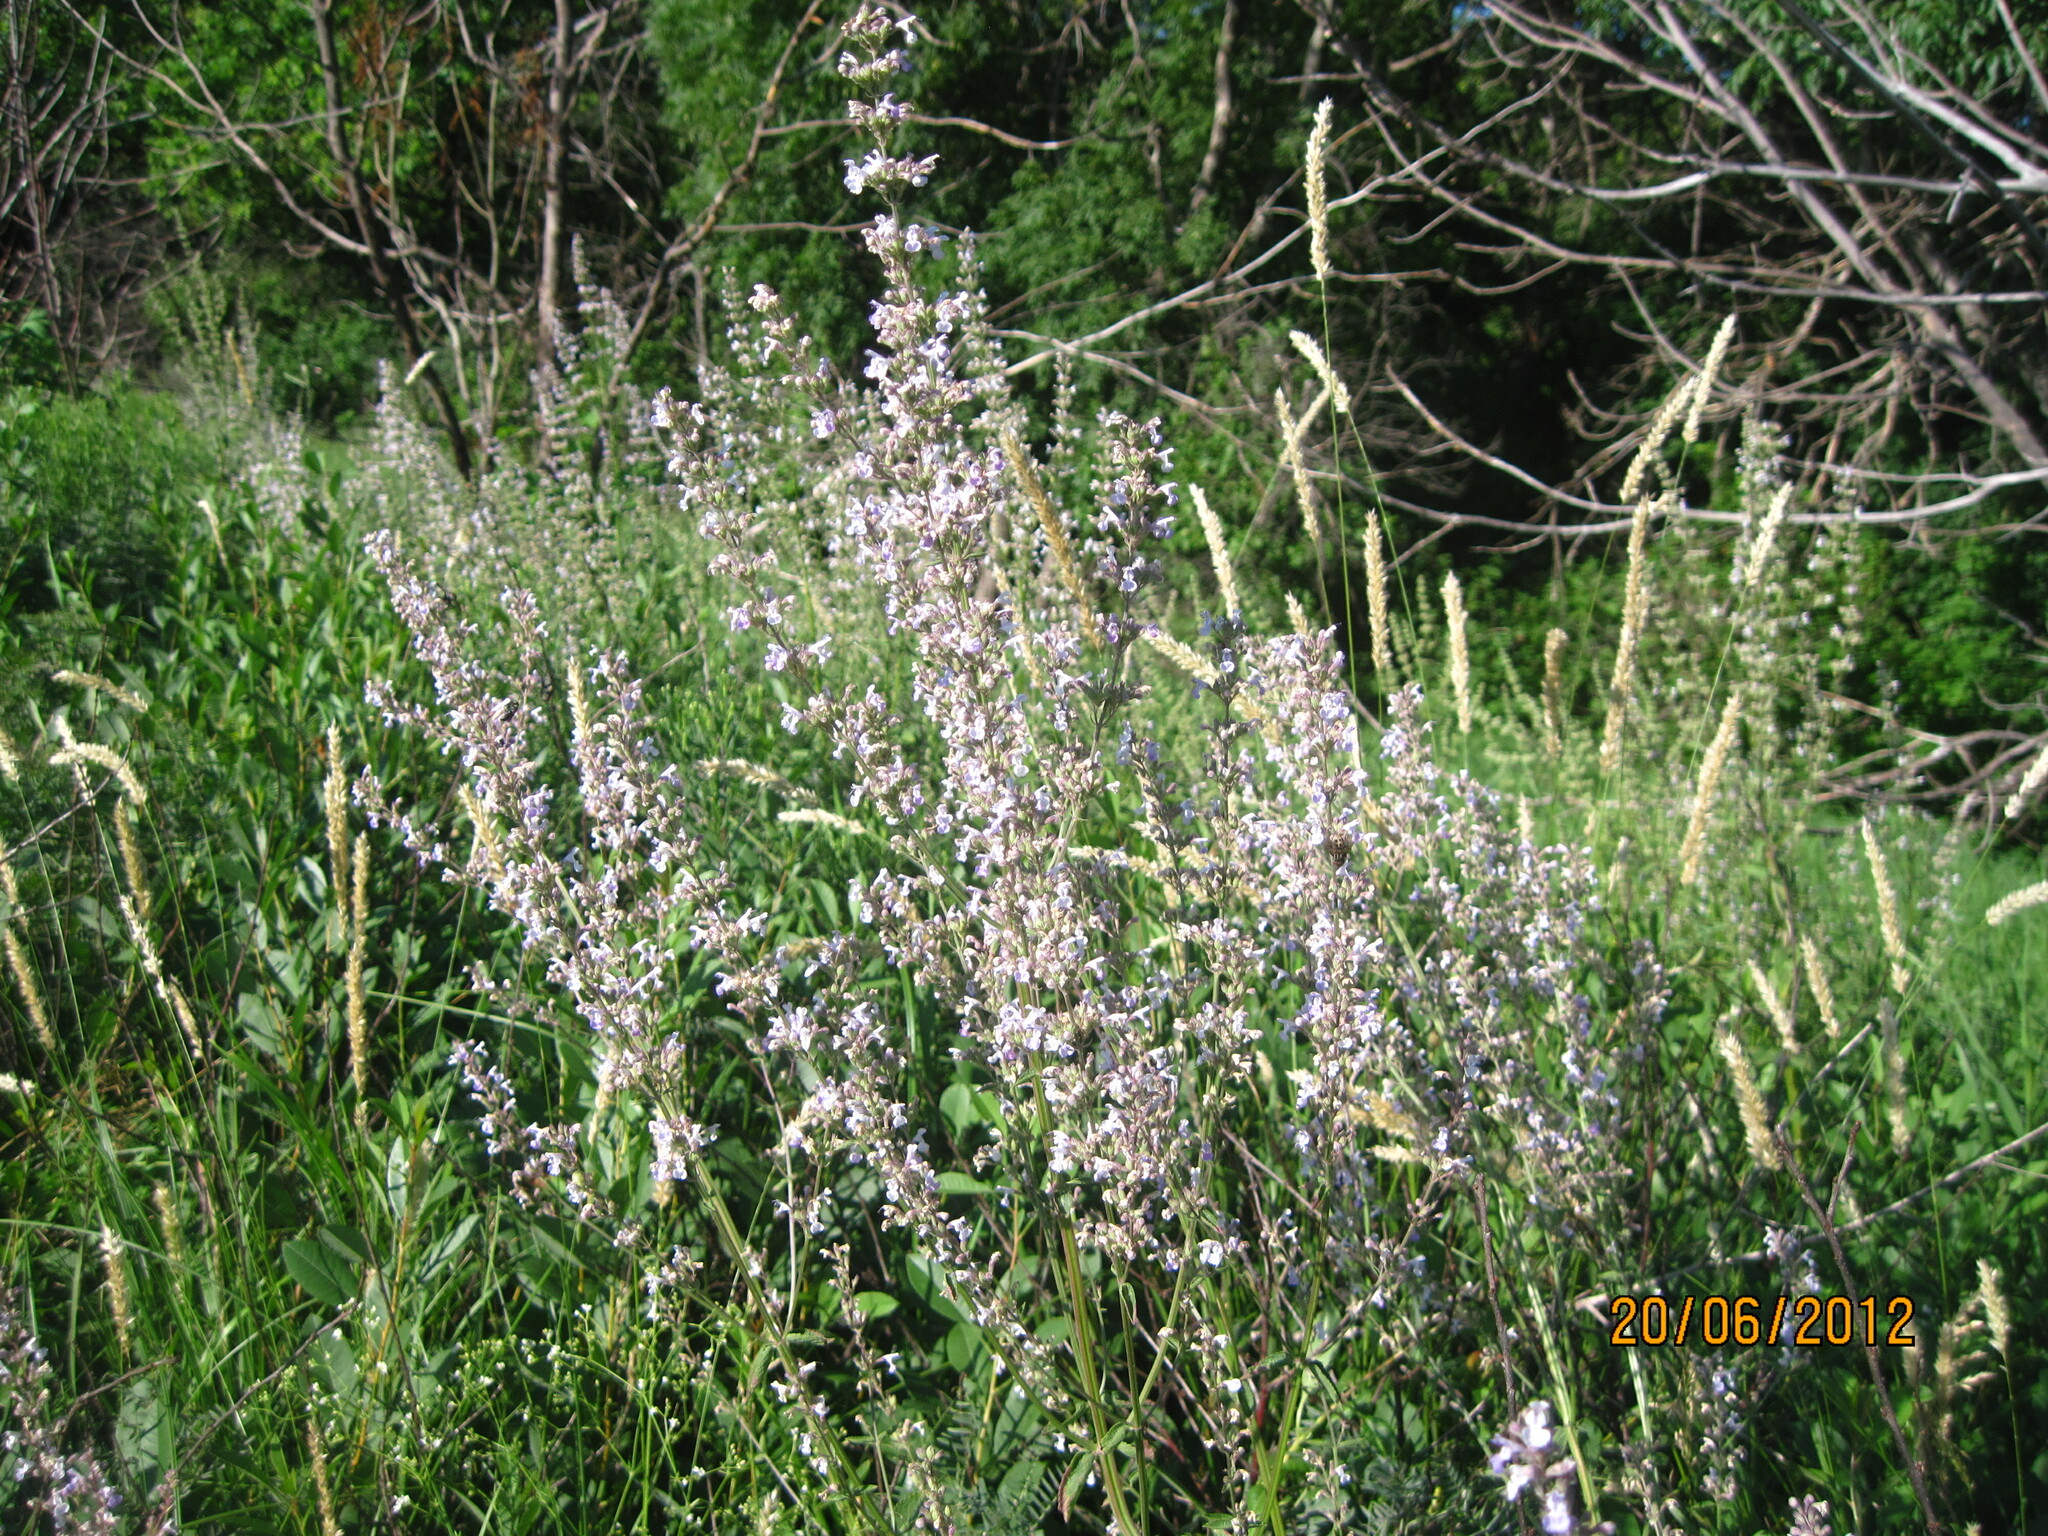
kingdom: Plantae
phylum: Tracheophyta
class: Magnoliopsida
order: Lamiales
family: Lamiaceae
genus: Nepeta
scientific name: Nepeta nuda
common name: Hairless catmint
